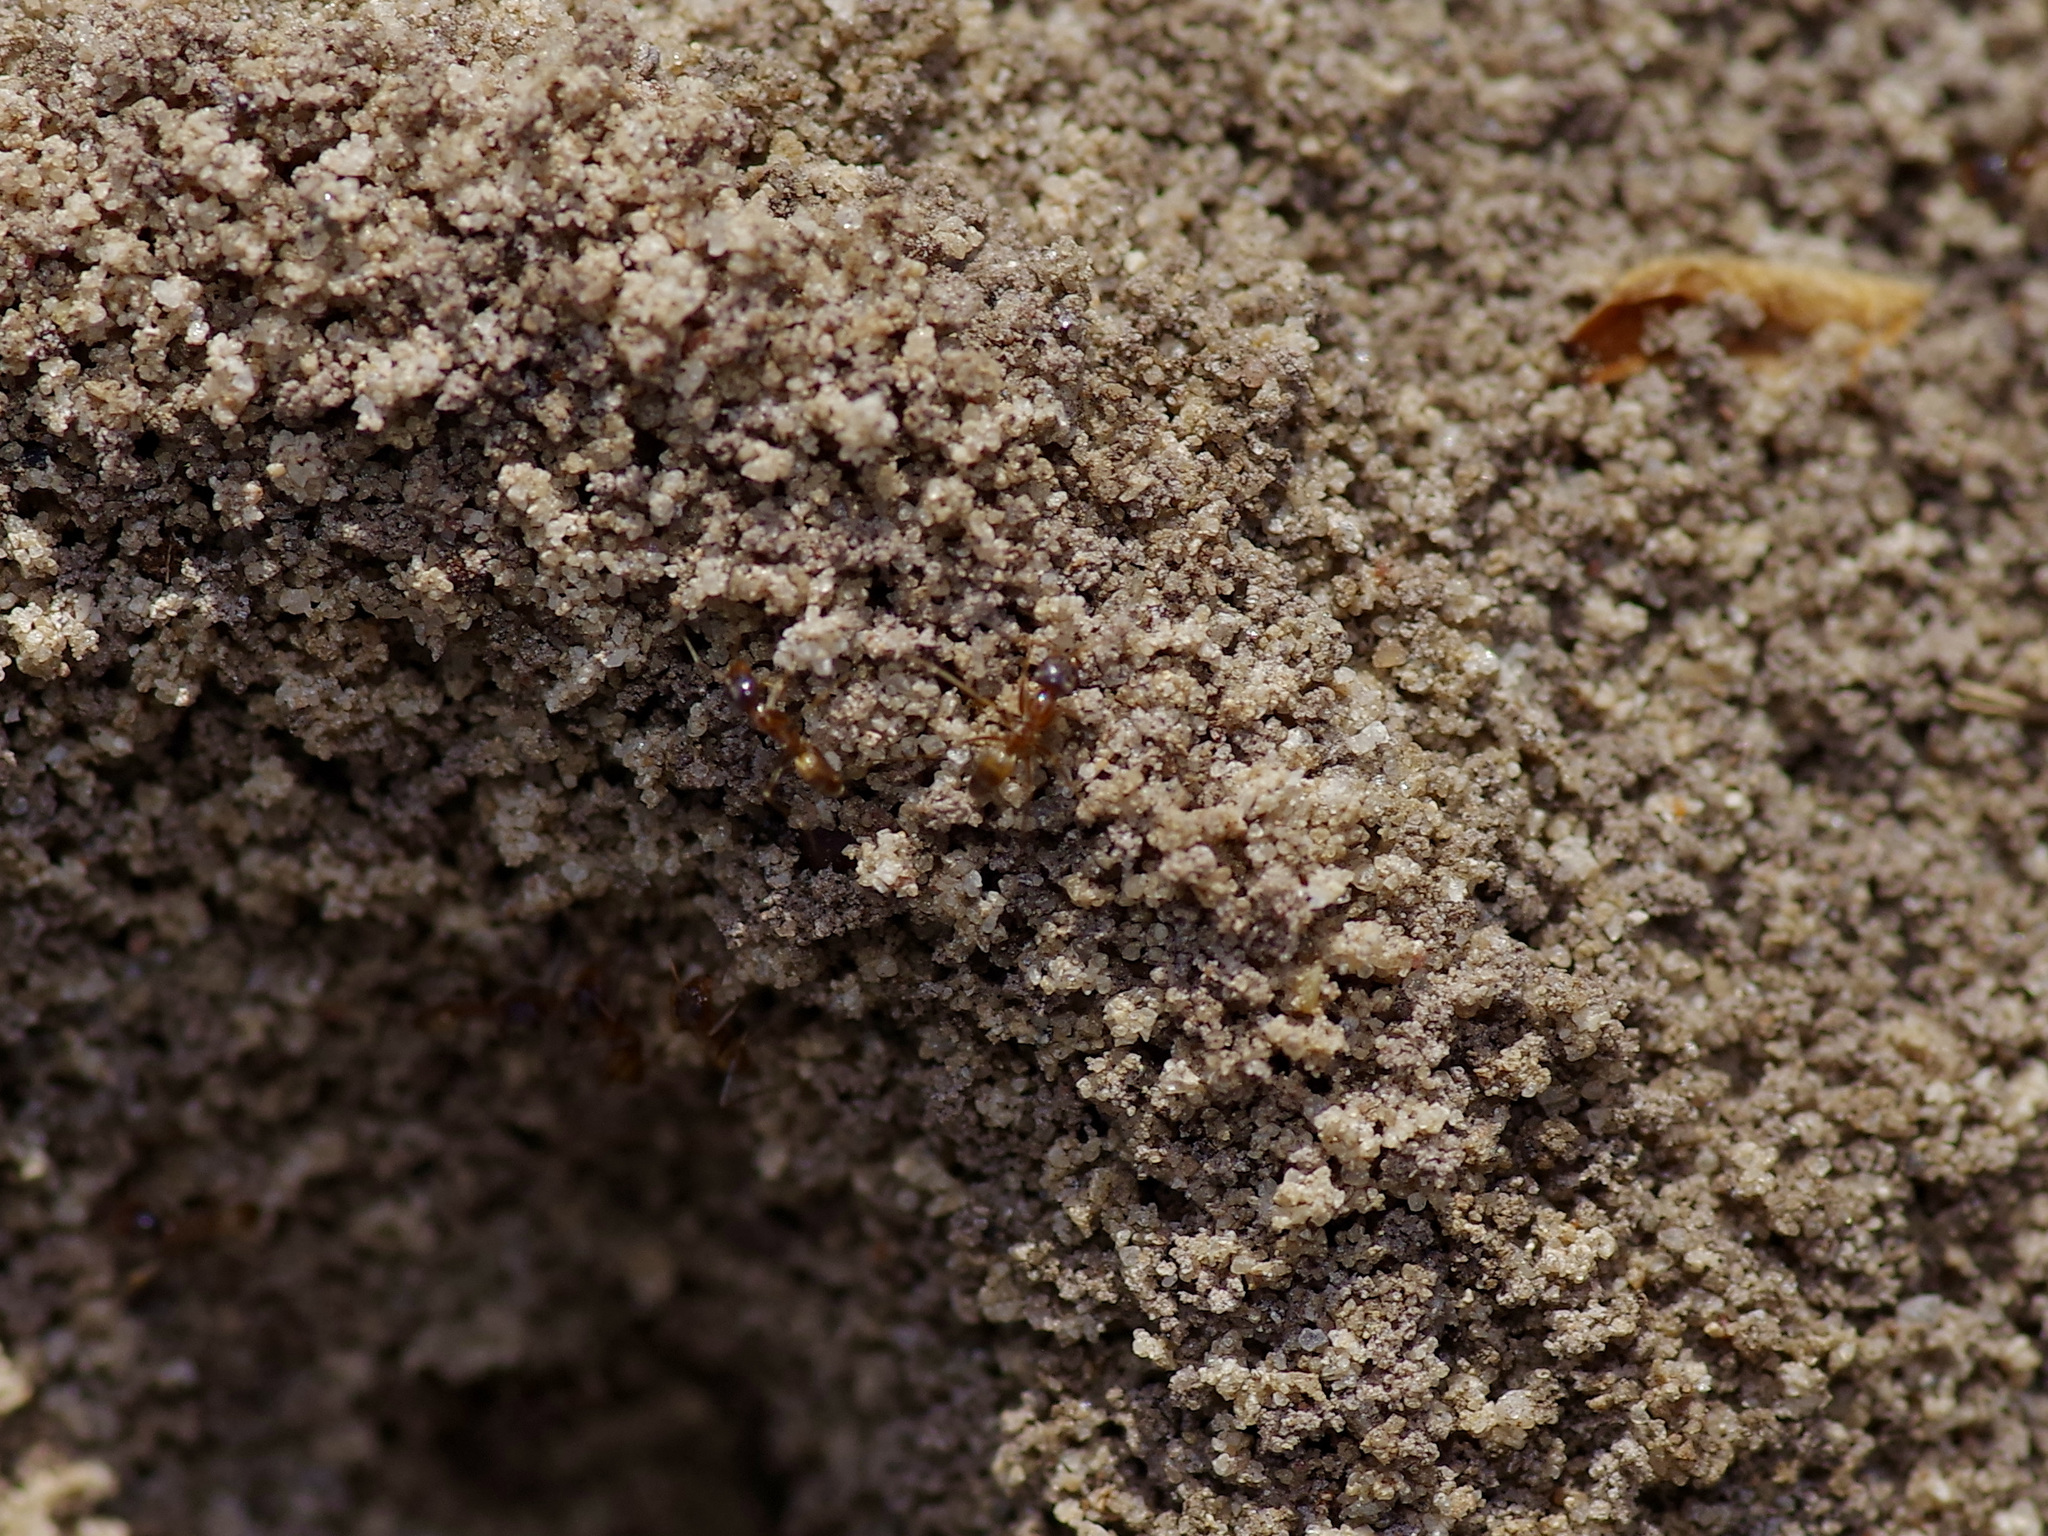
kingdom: Animalia
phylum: Arthropoda
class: Insecta
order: Hymenoptera
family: Formicidae
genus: Dorymyrmex
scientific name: Dorymyrmex flavus
